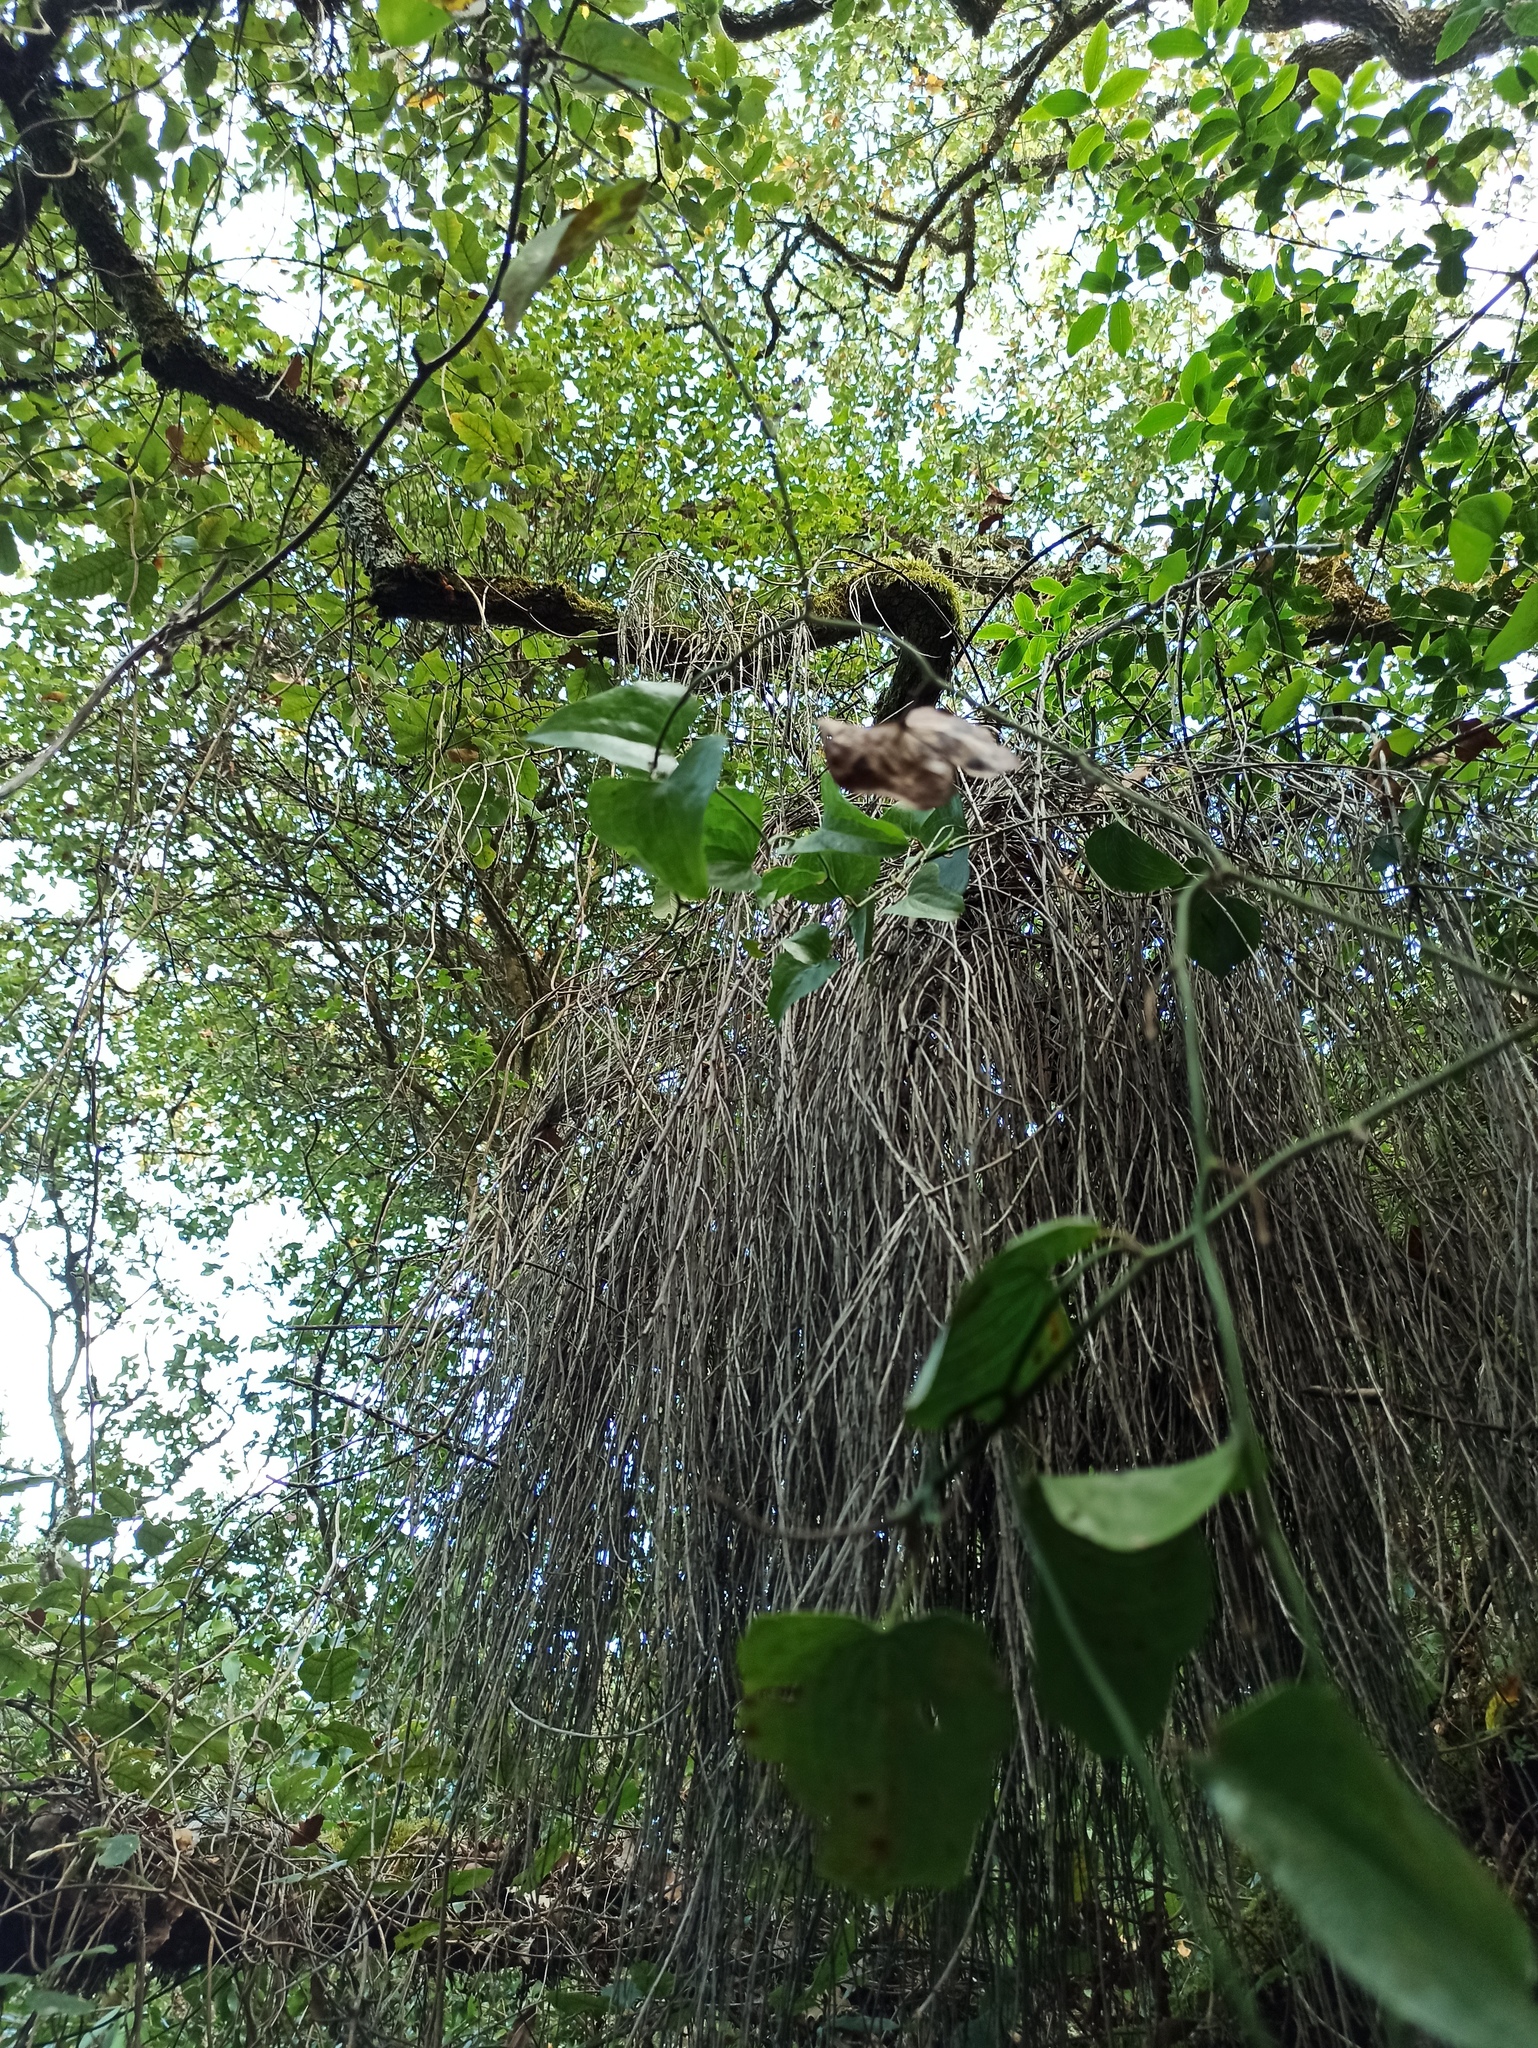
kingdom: Plantae
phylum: Tracheophyta
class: Liliopsida
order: Liliales
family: Smilacaceae
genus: Smilax
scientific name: Smilax aspera
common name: Common smilax
